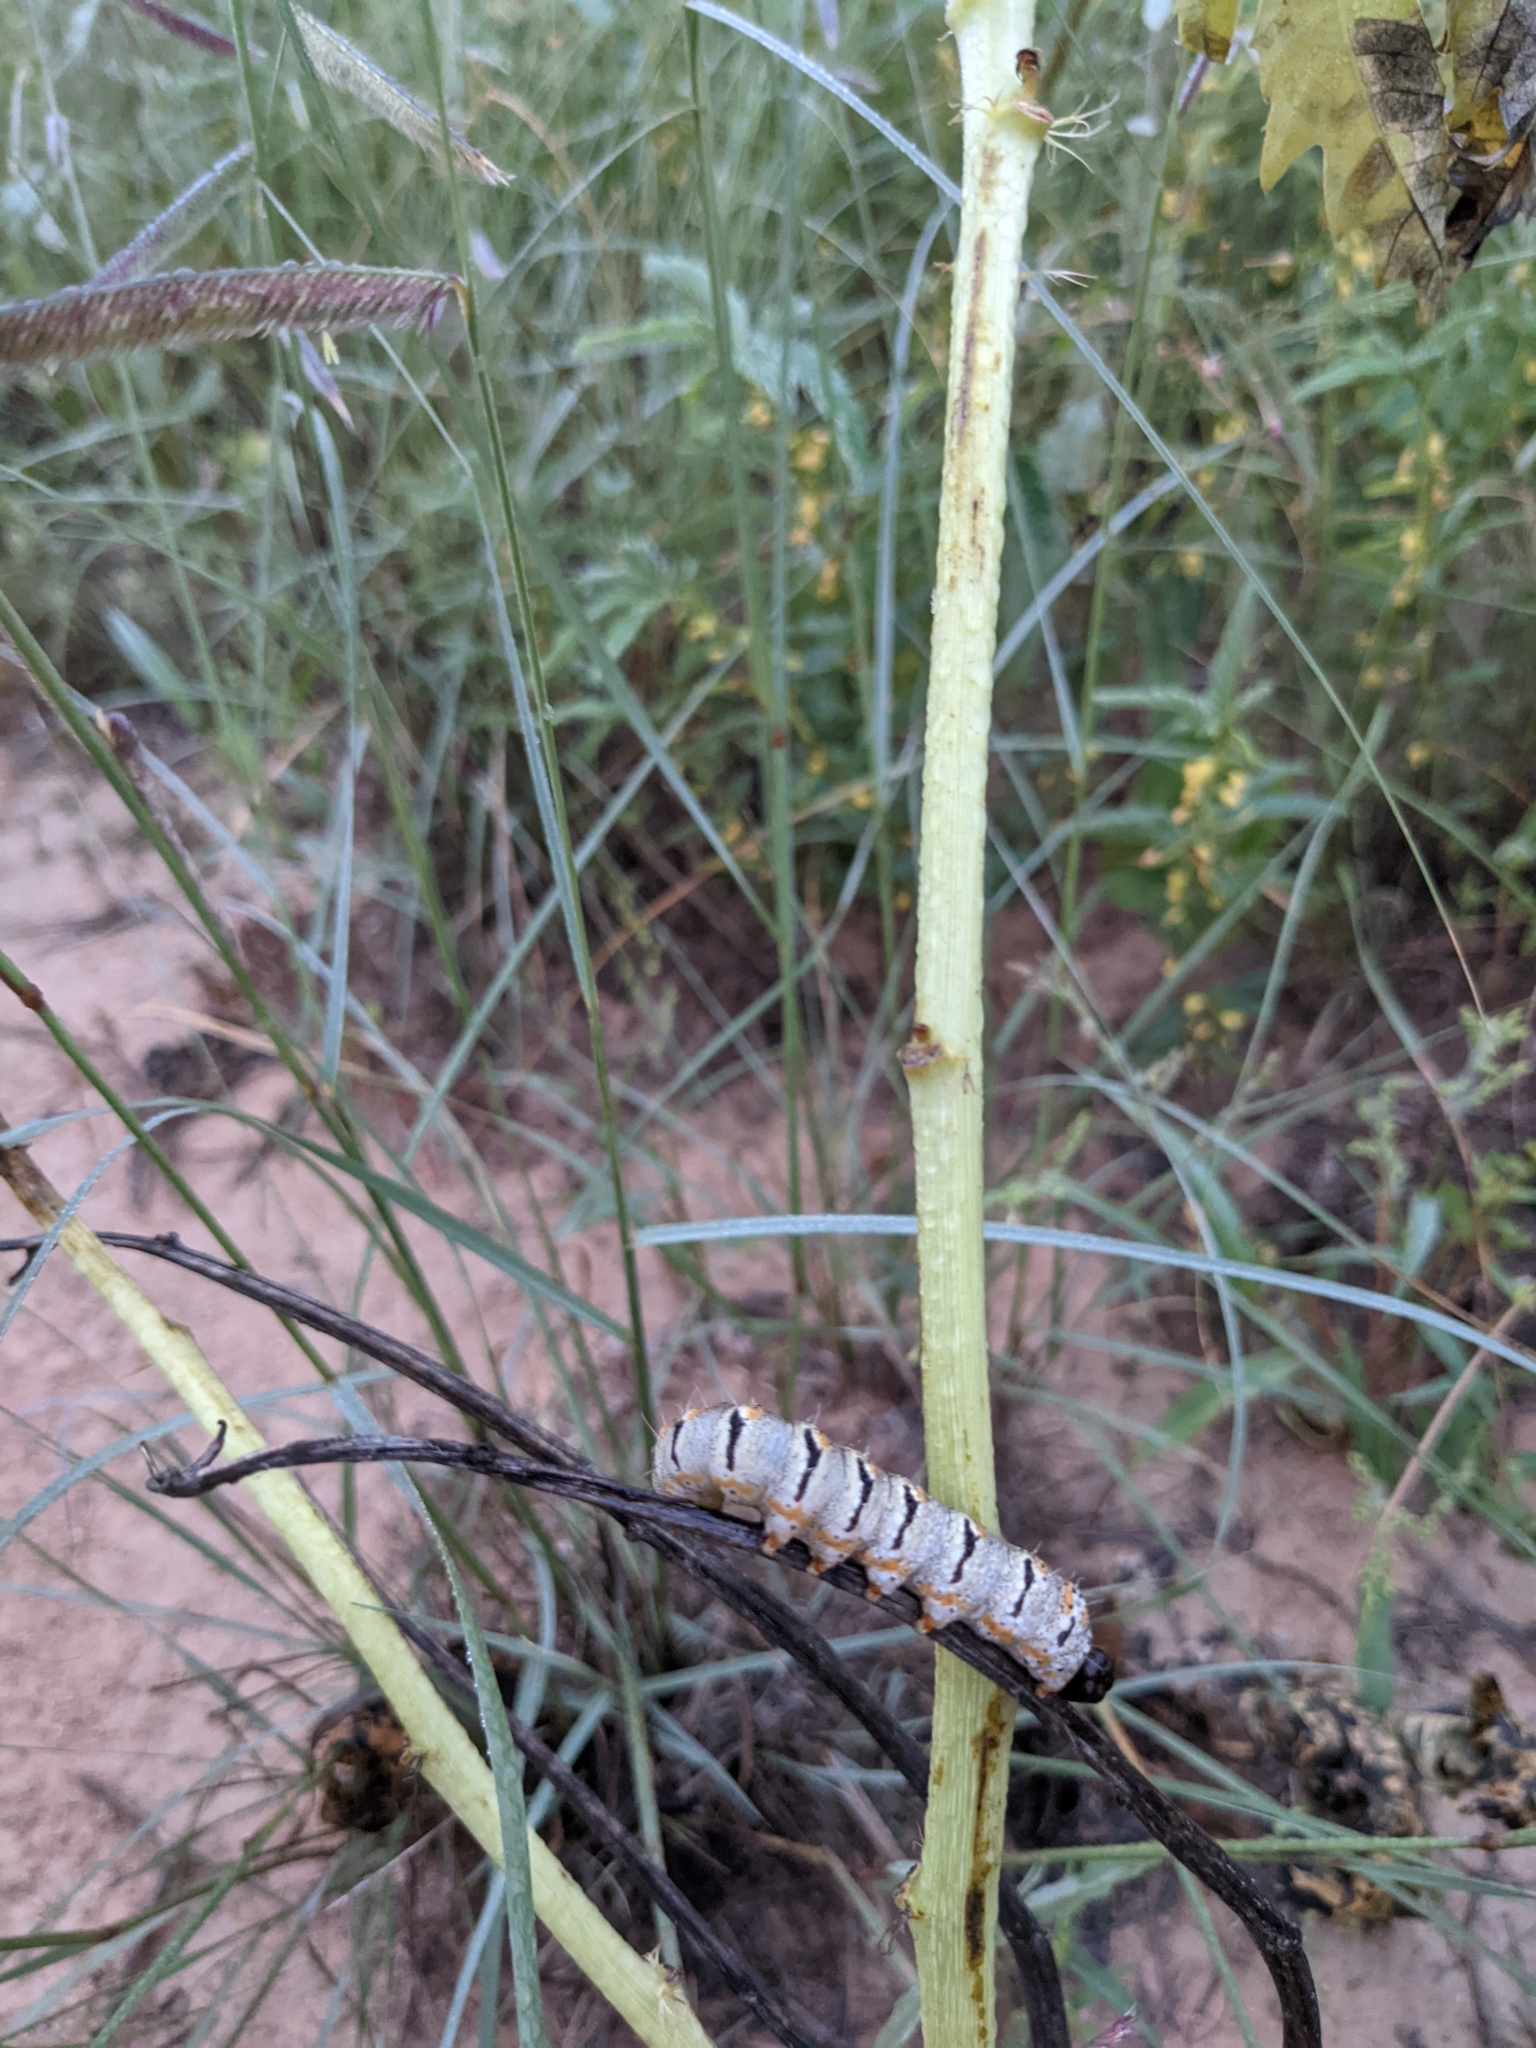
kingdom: Animalia
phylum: Arthropoda
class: Insecta
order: Lepidoptera
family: Noctuidae
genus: Euscirrhopterus
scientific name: Euscirrhopterus gloveri
